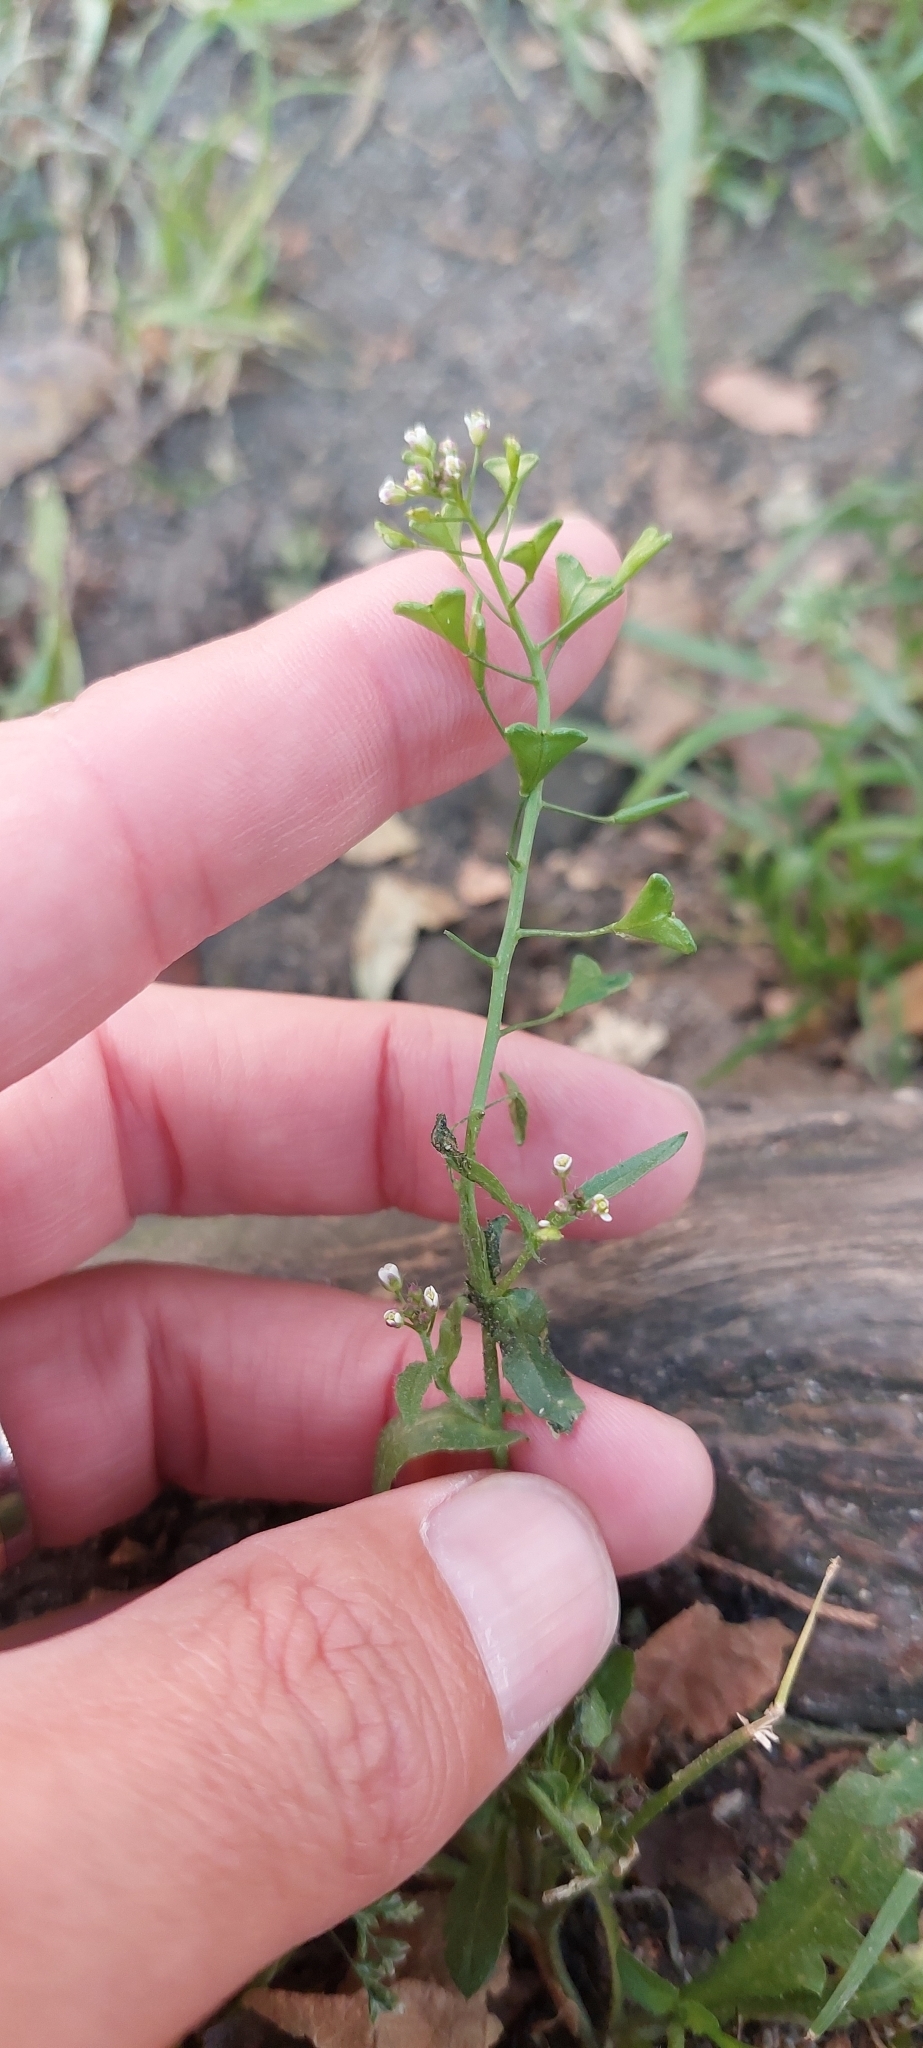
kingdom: Plantae
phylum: Tracheophyta
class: Magnoliopsida
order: Brassicales
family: Brassicaceae
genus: Capsella
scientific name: Capsella bursa-pastoris
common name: Shepherd's purse
